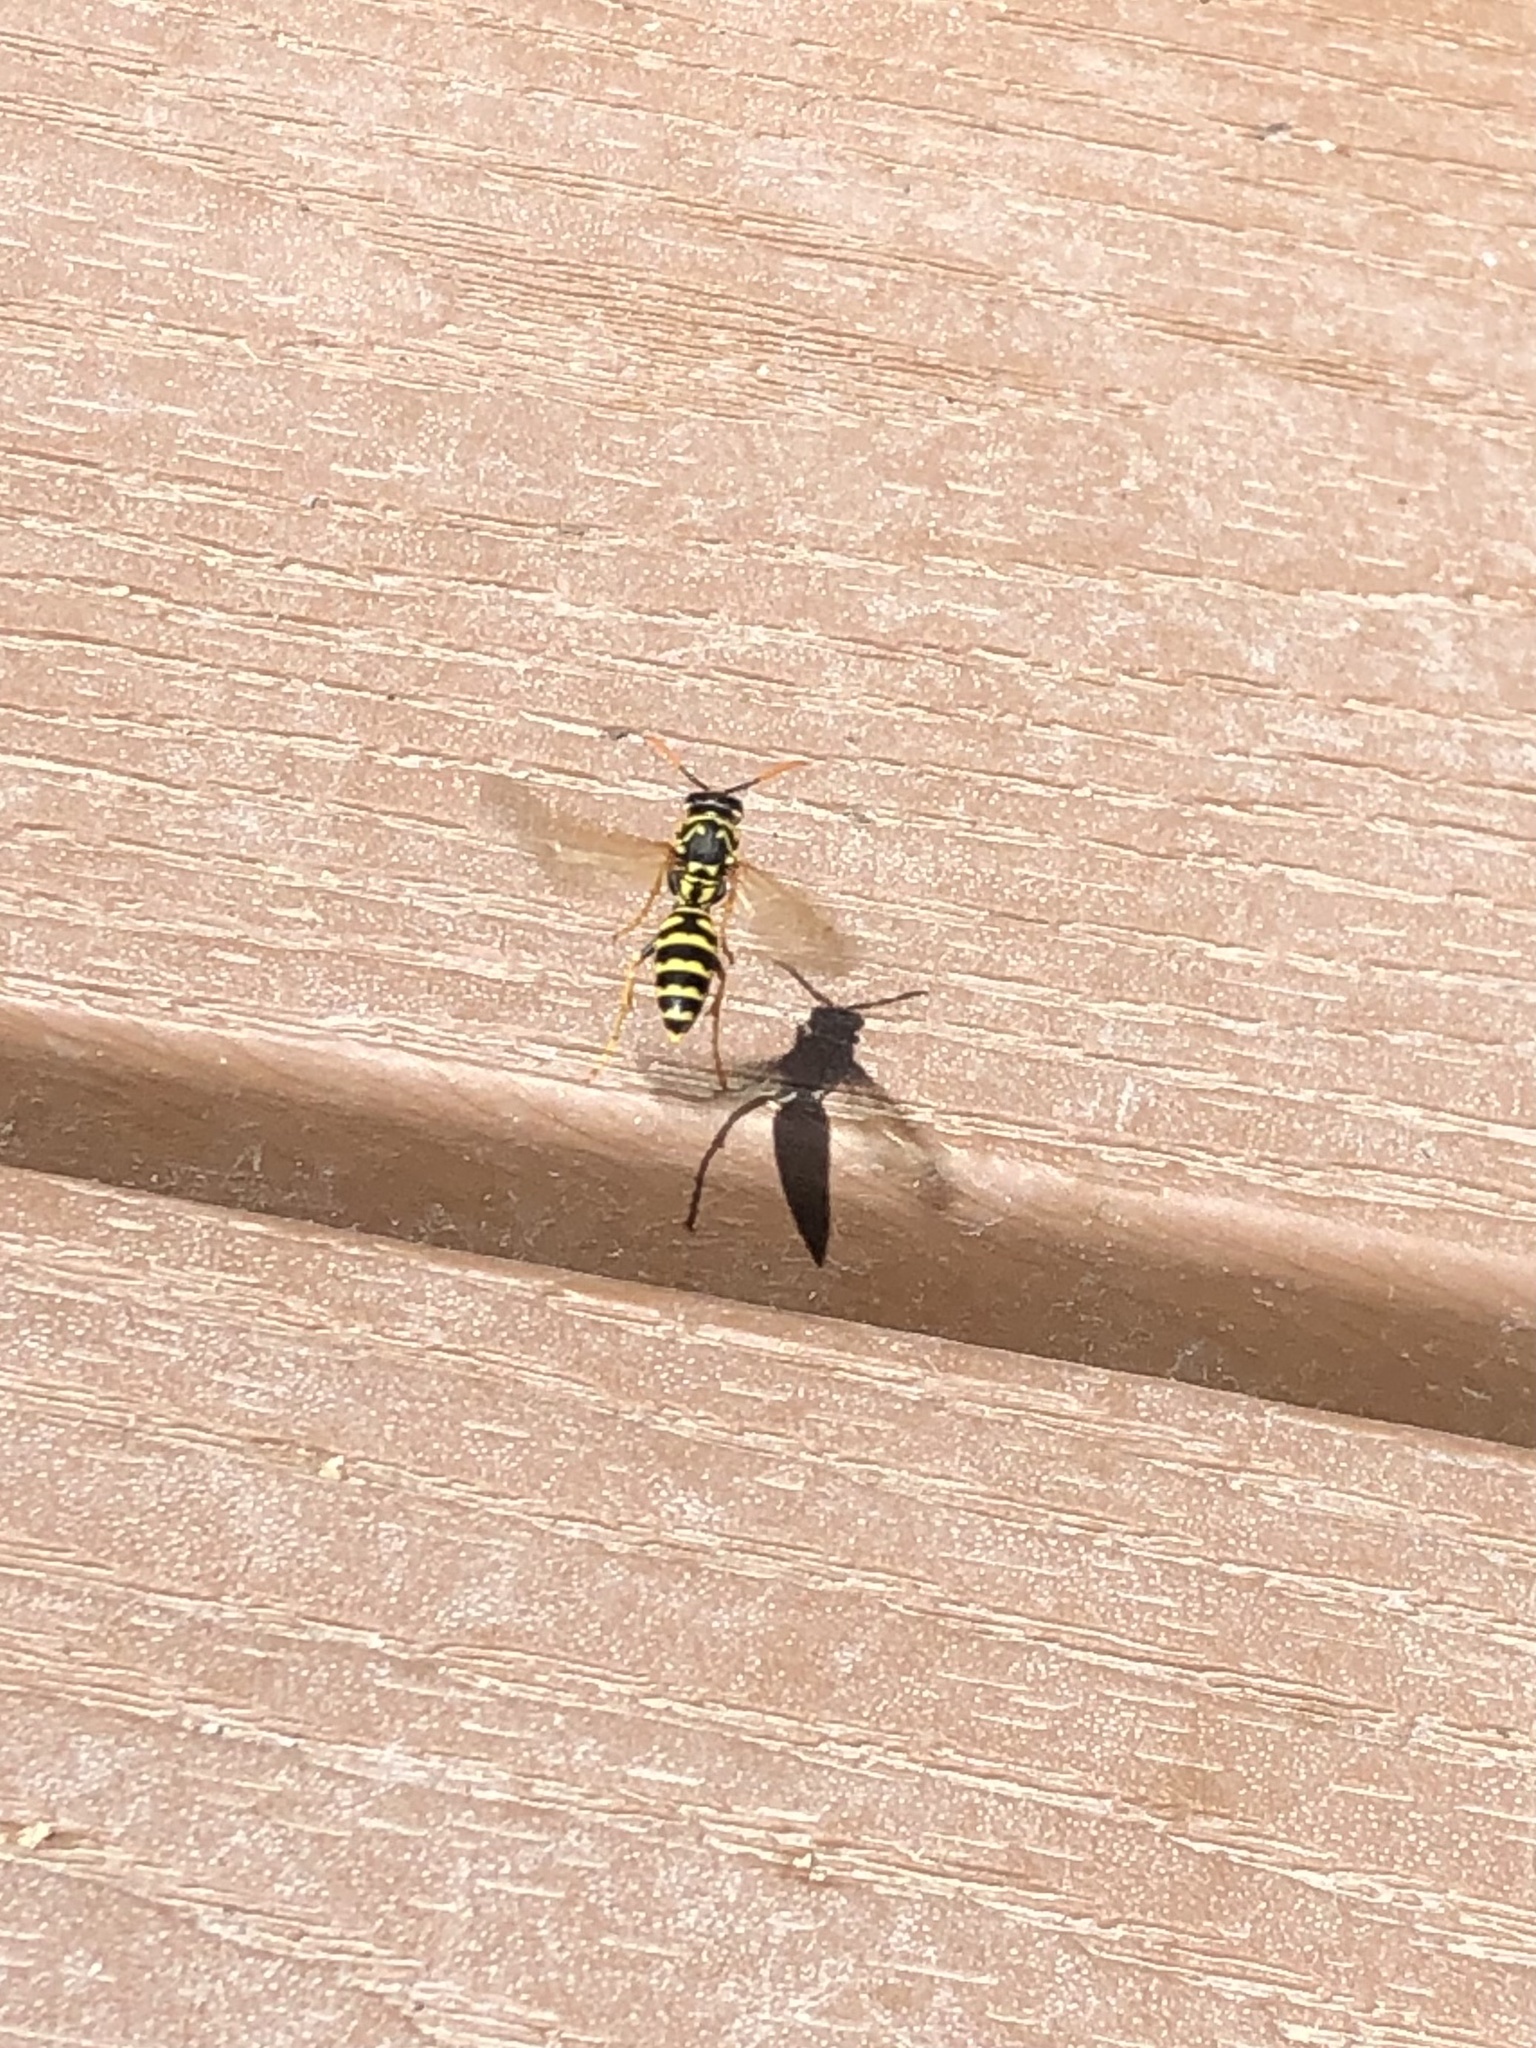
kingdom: Animalia
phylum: Arthropoda
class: Insecta
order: Hymenoptera
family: Eumenidae
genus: Polistes
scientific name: Polistes dominula
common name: Paper wasp
